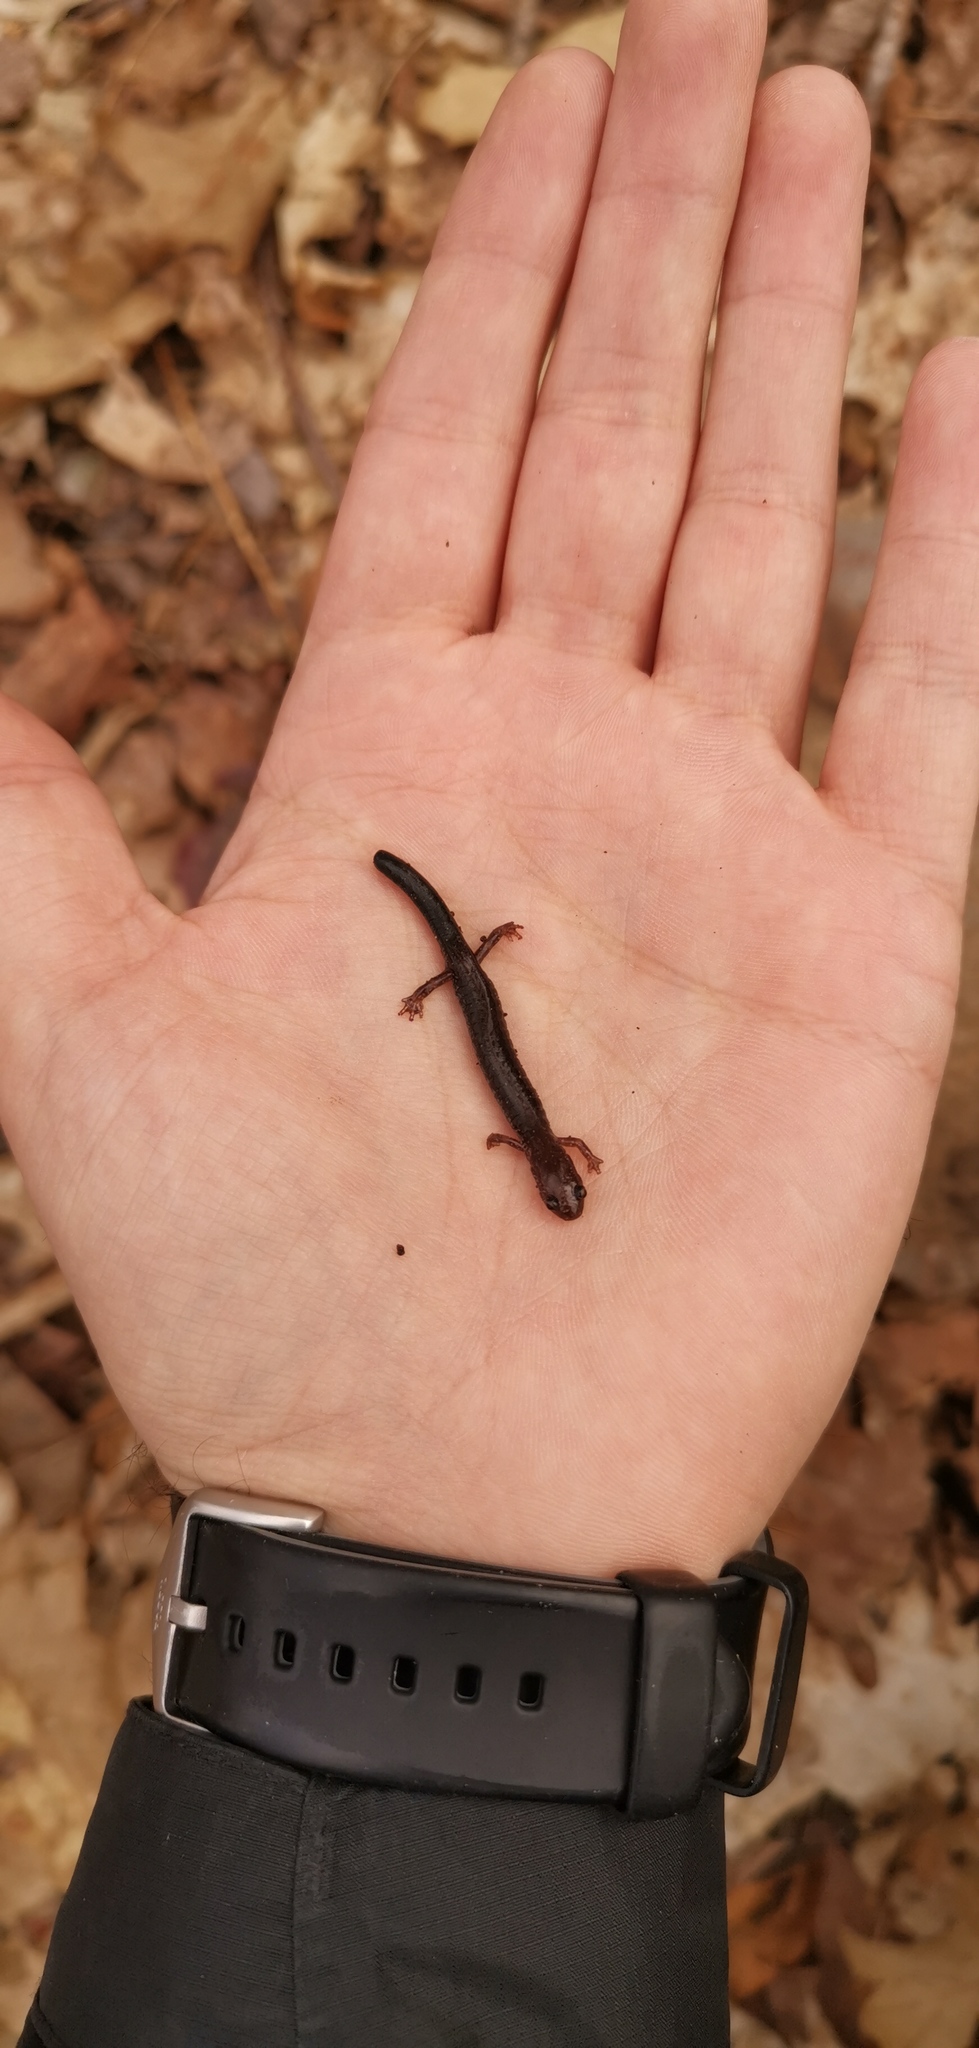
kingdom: Animalia
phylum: Chordata
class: Amphibia
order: Caudata
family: Plethodontidae
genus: Plethodon
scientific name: Plethodon cinereus
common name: Redback salamander
